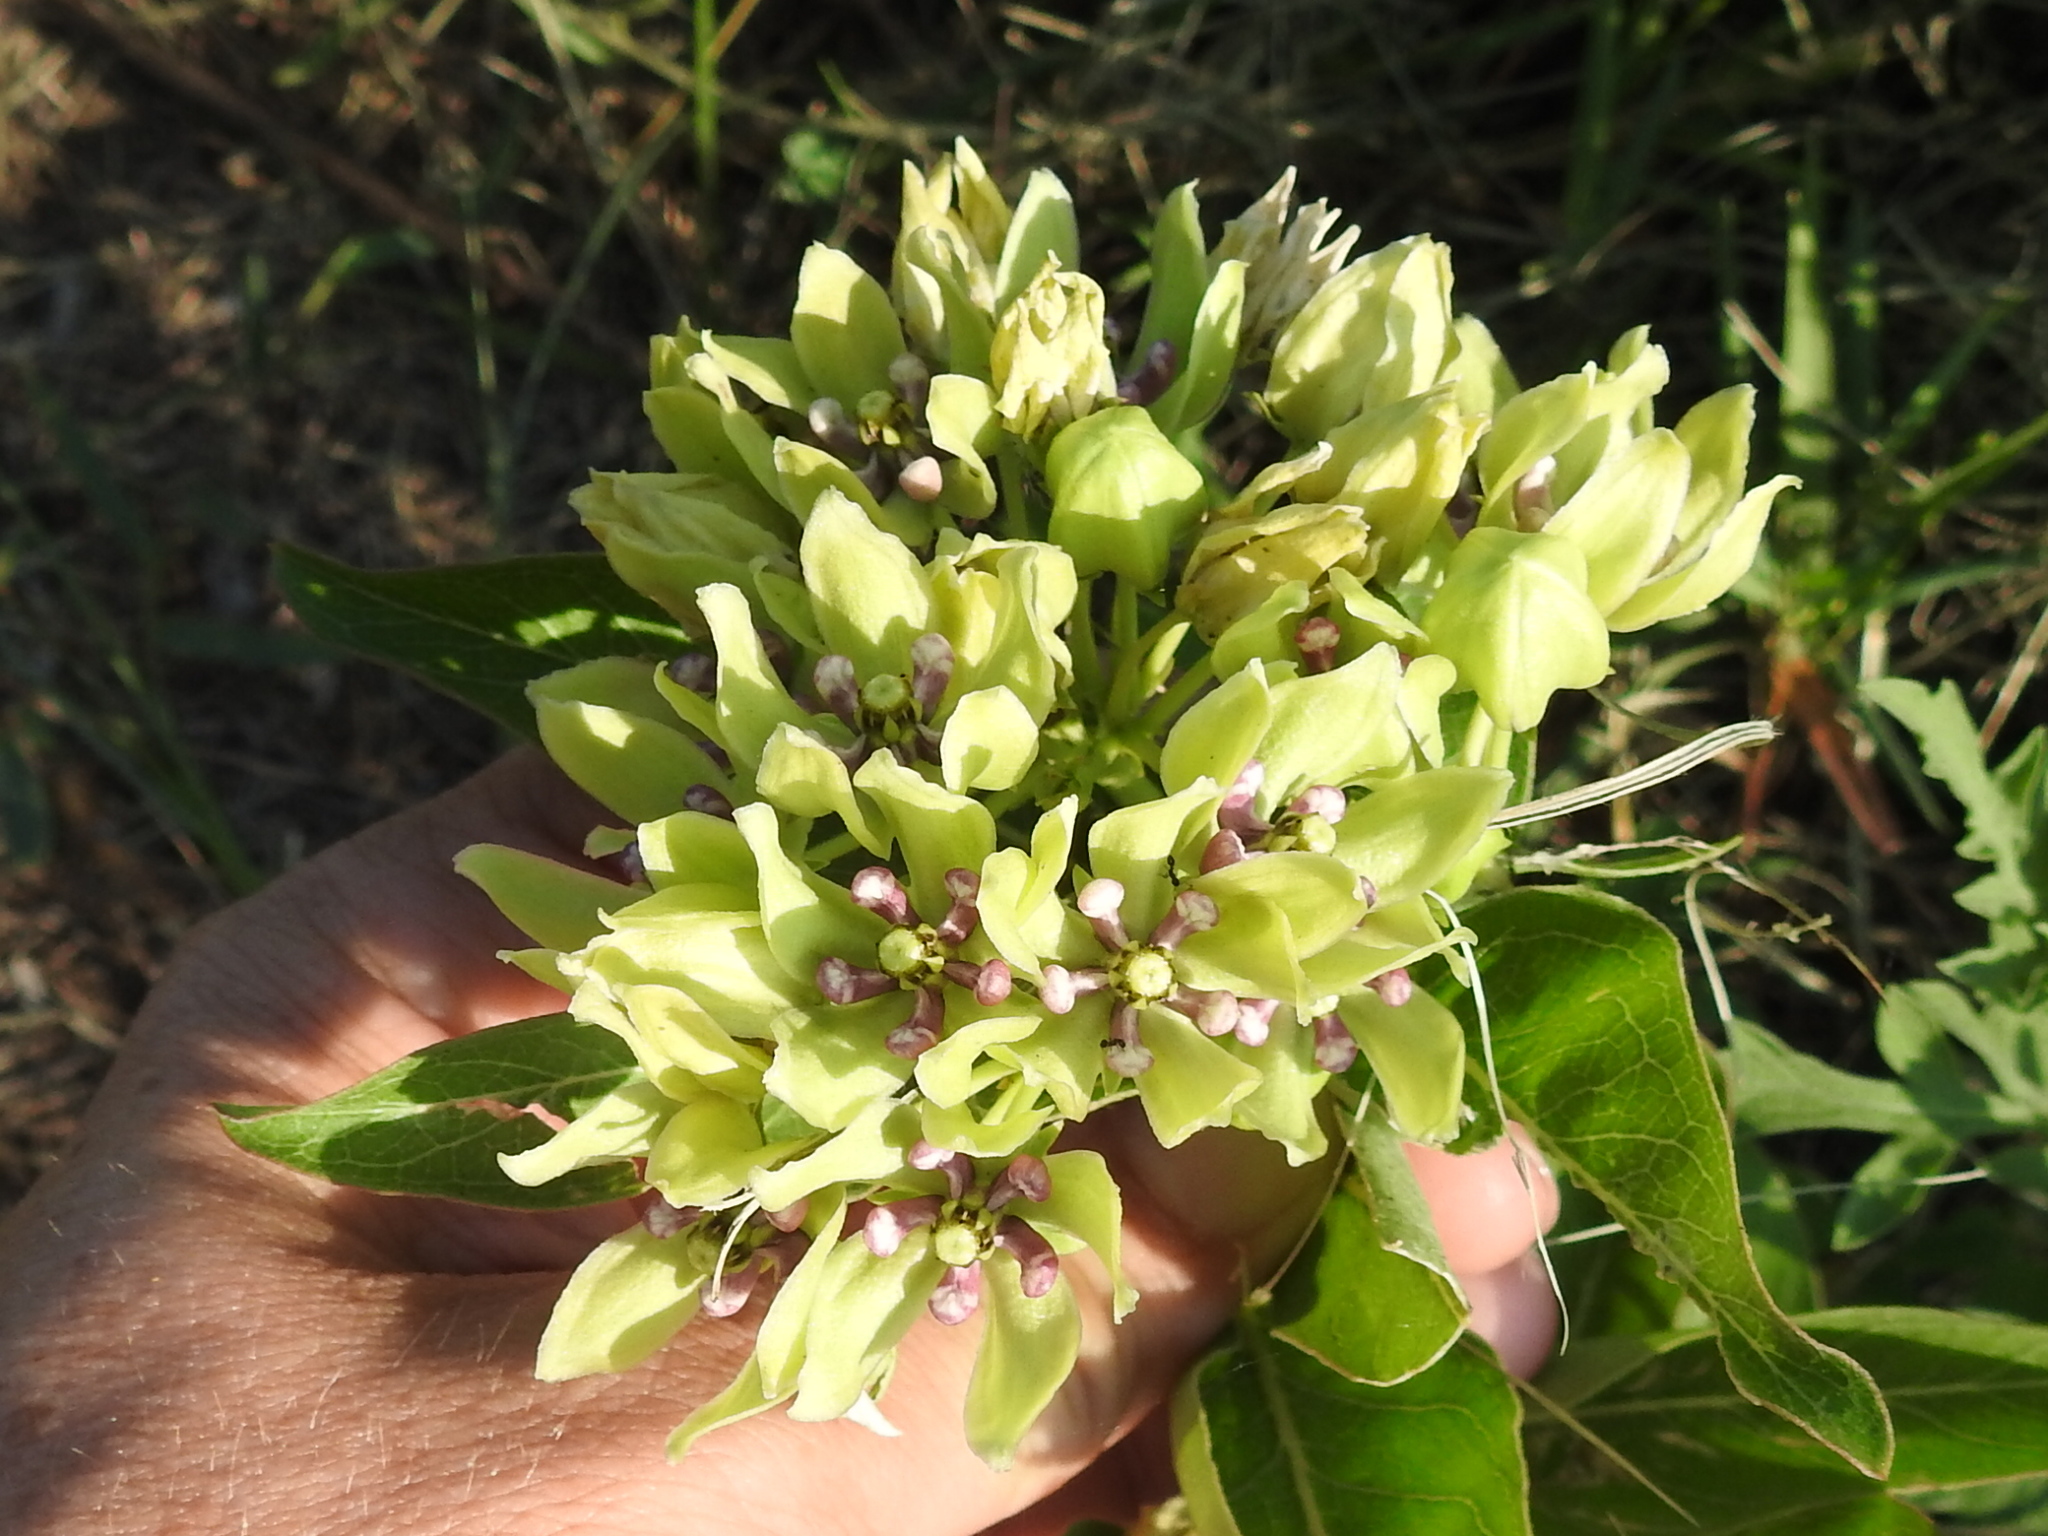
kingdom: Plantae
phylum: Tracheophyta
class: Magnoliopsida
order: Gentianales
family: Apocynaceae
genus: Asclepias
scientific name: Asclepias viridis
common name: Antelope-horns
